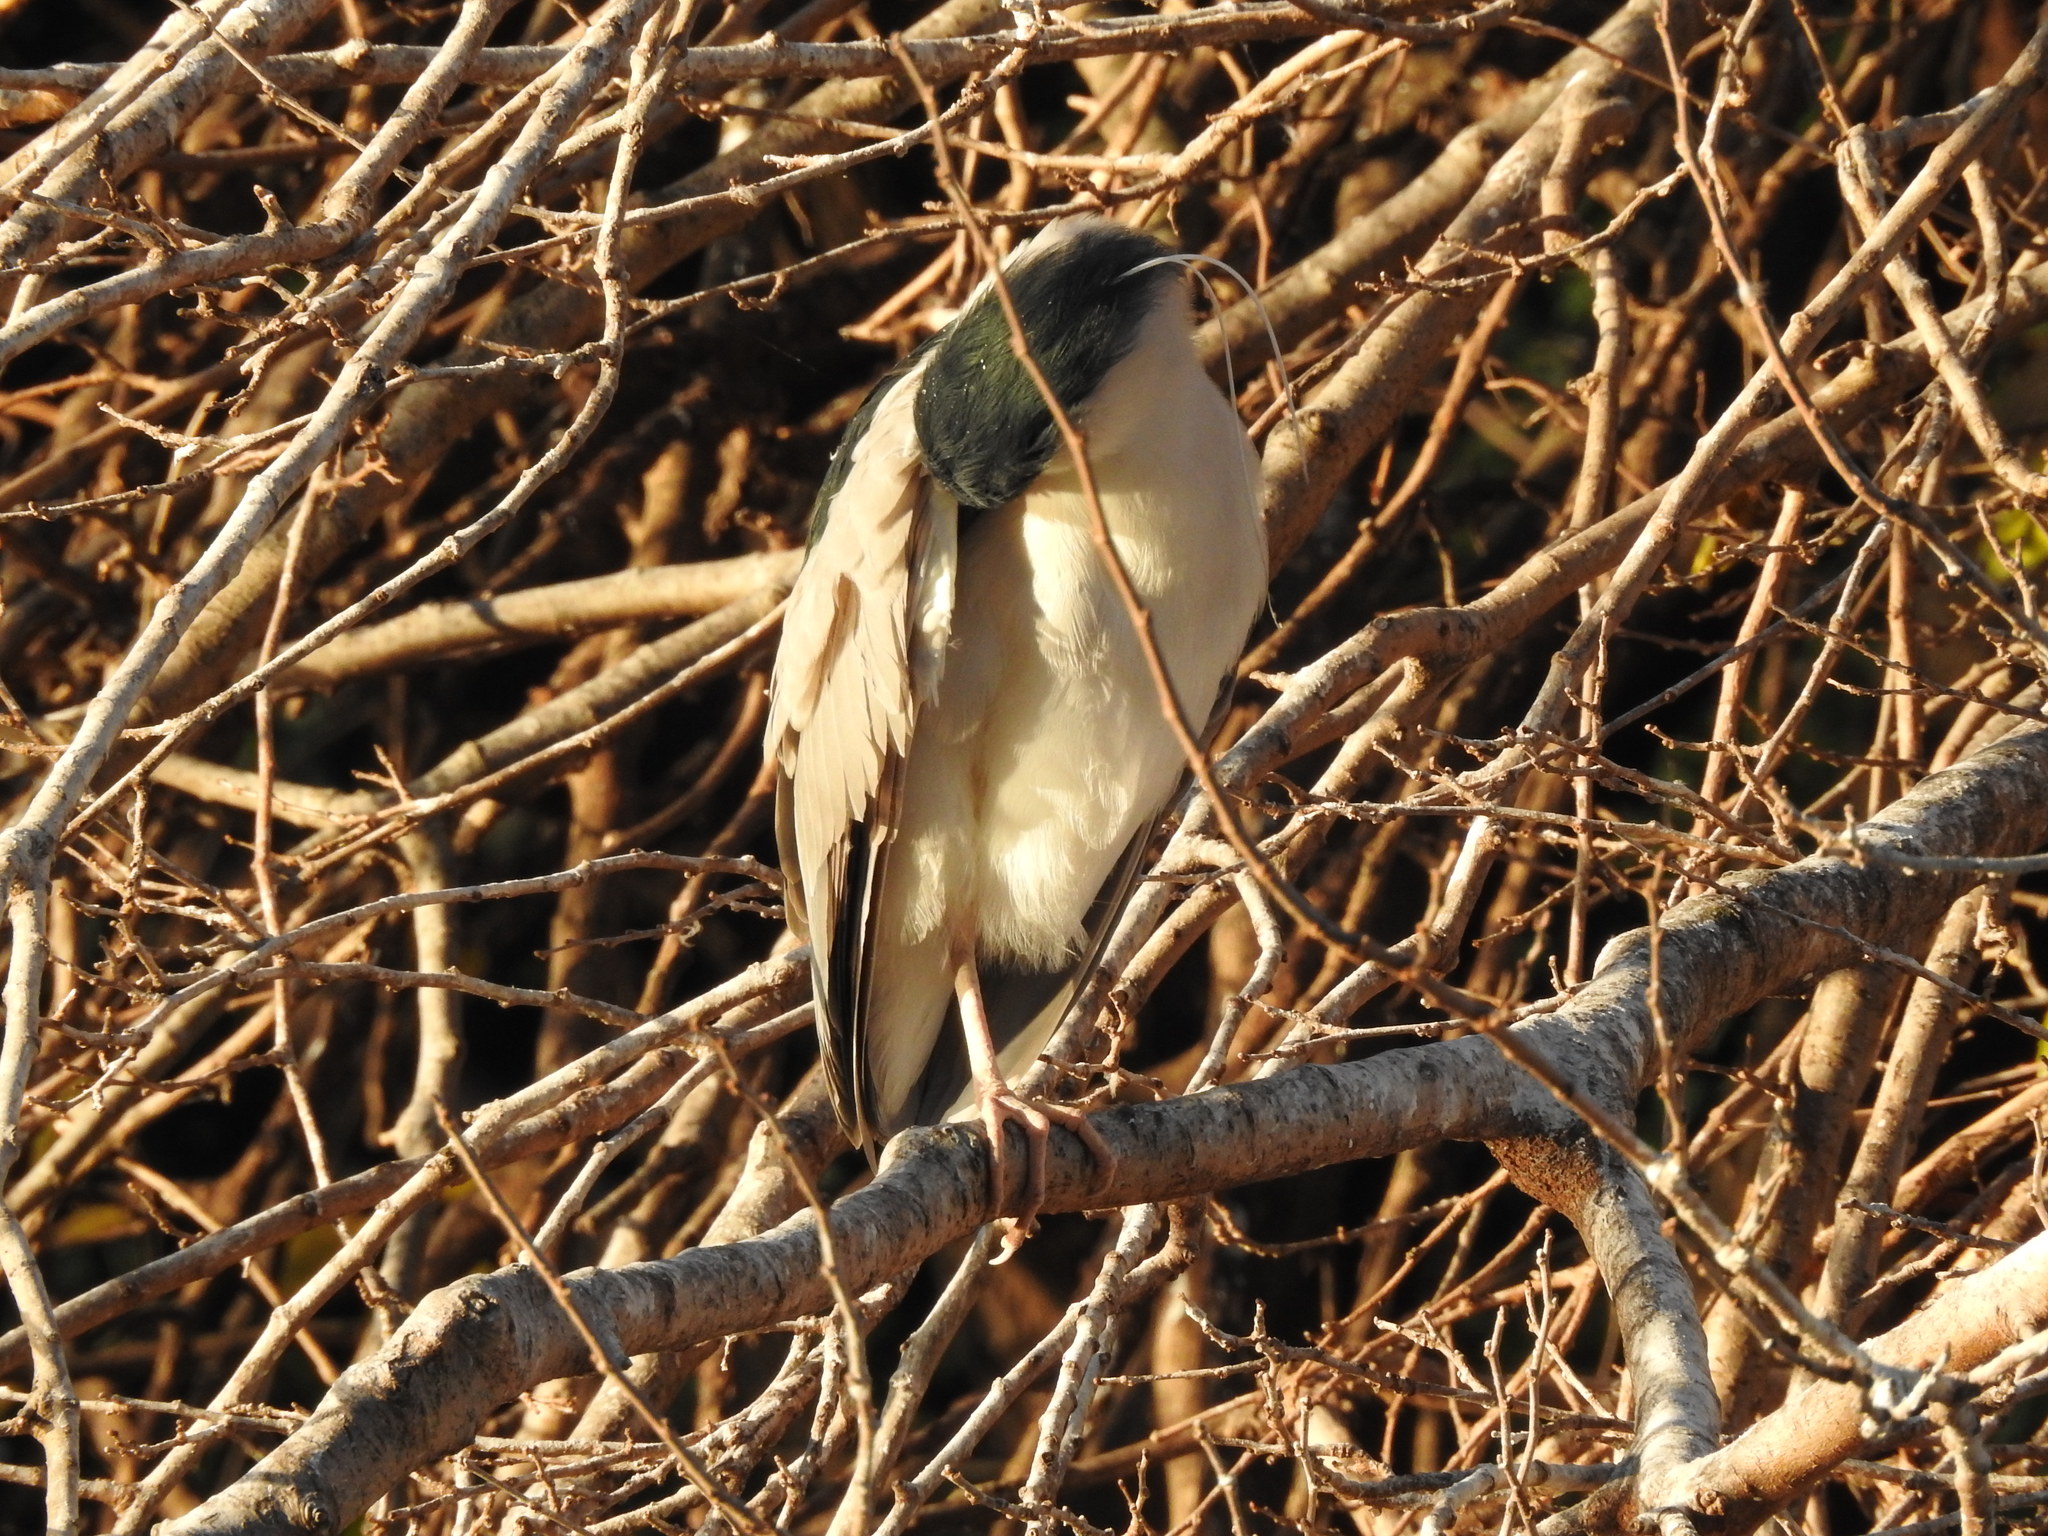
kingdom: Animalia
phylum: Chordata
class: Aves
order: Pelecaniformes
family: Ardeidae
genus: Nycticorax
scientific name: Nycticorax nycticorax
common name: Black-crowned night heron
